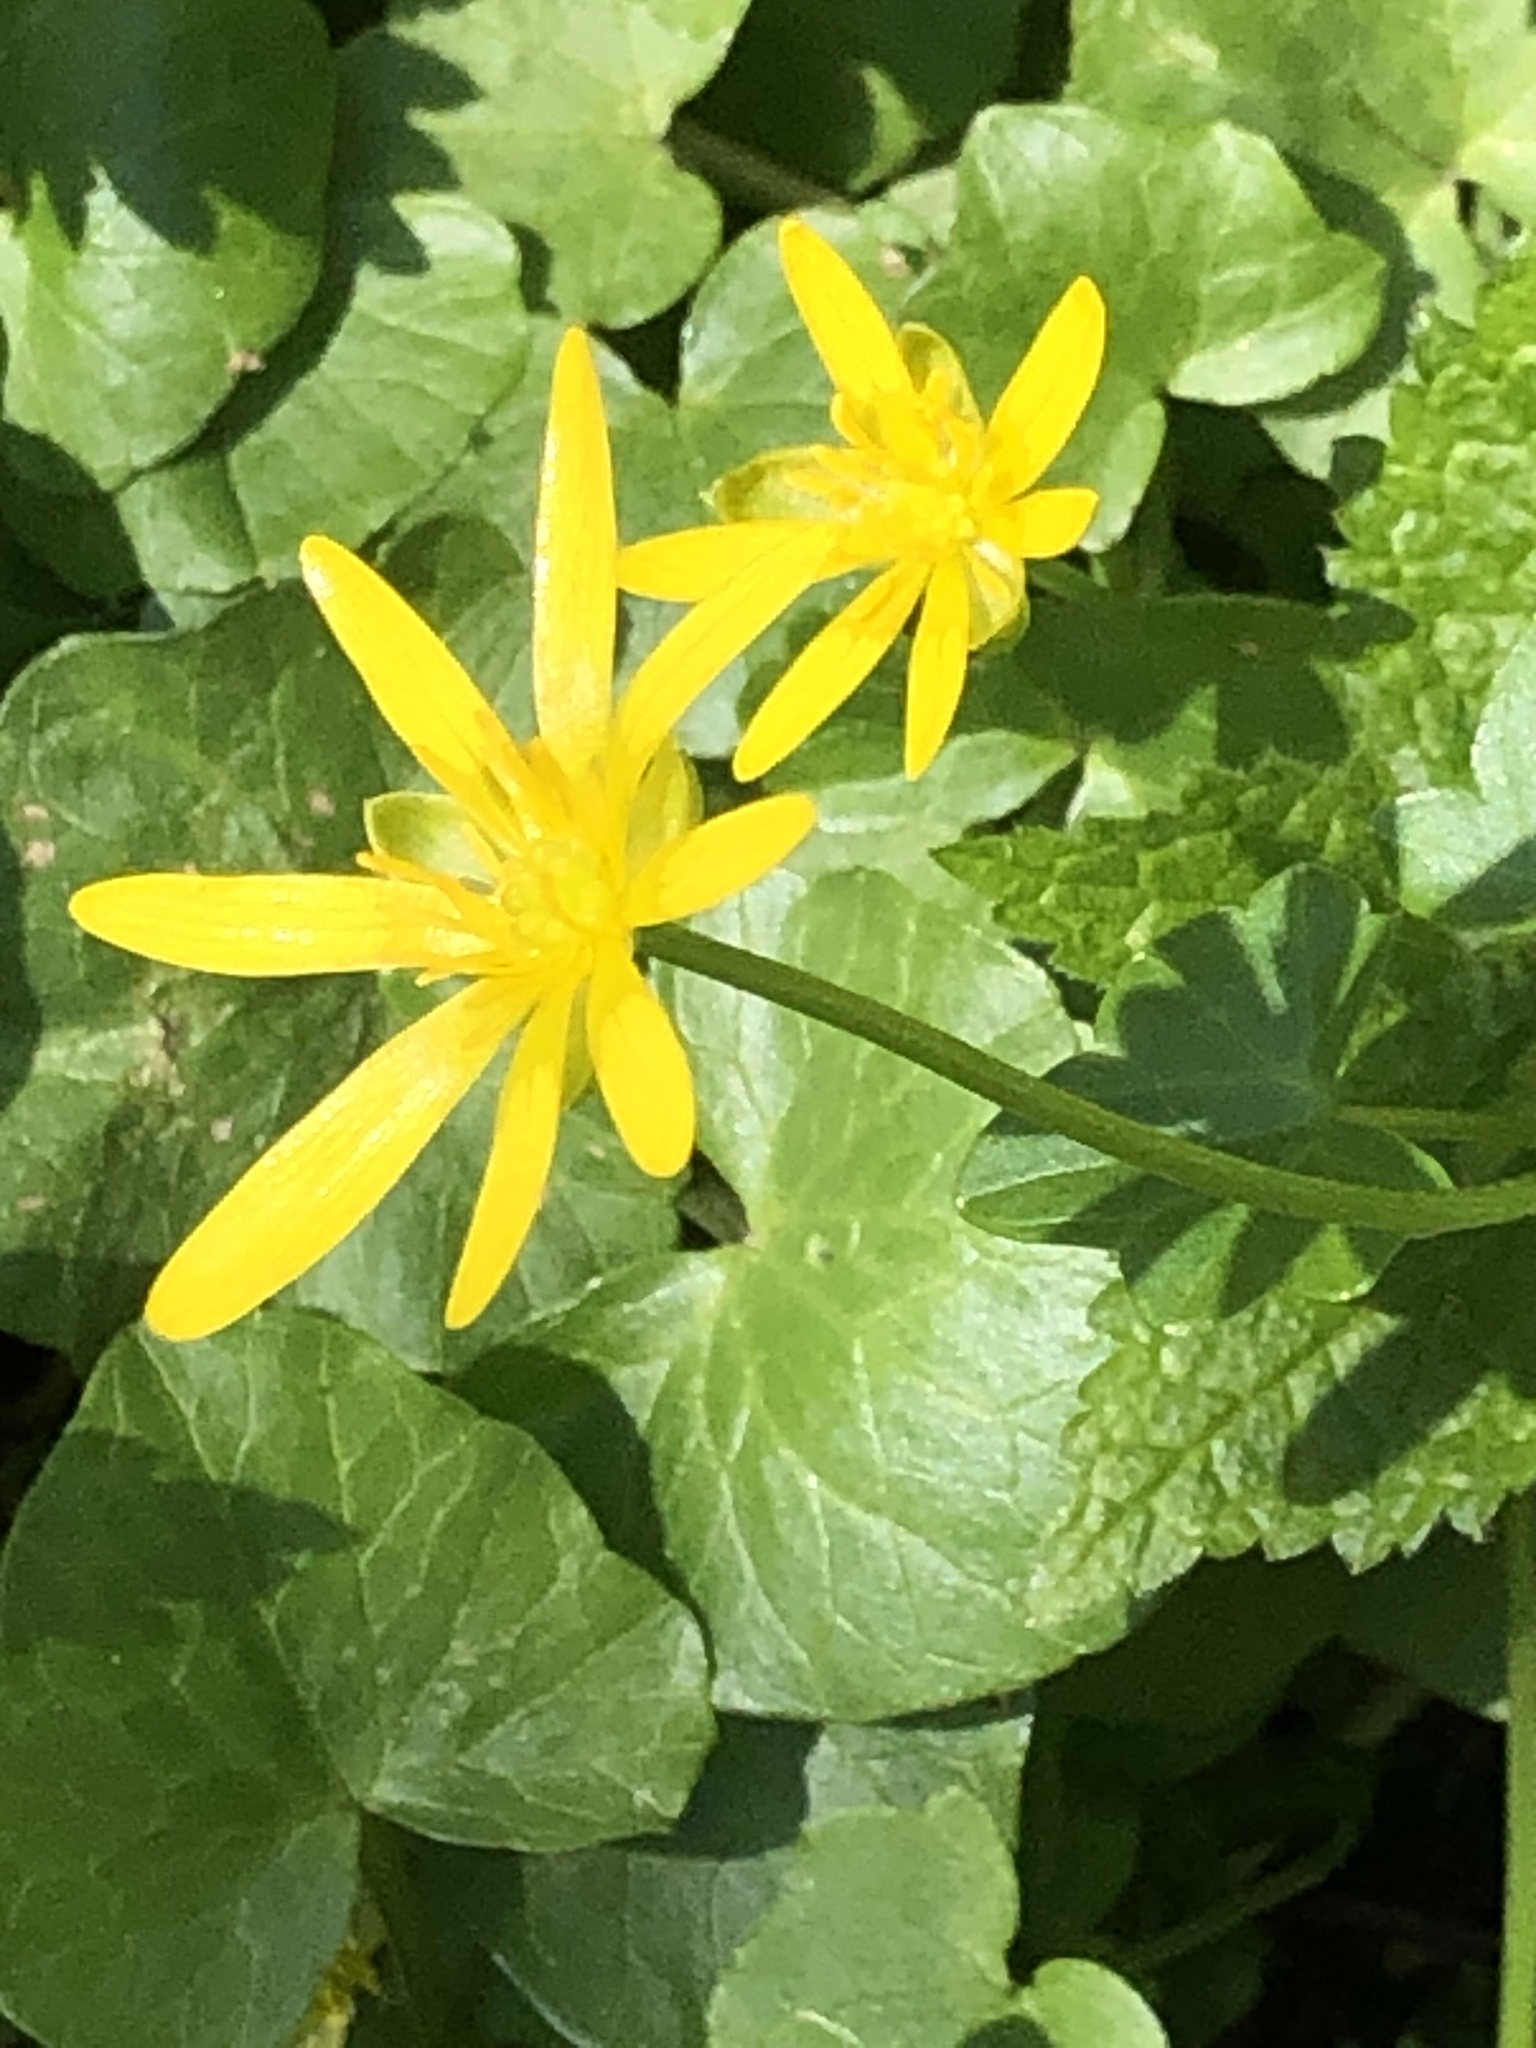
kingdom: Plantae
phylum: Tracheophyta
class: Magnoliopsida
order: Ranunculales
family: Ranunculaceae
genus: Ficaria
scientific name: Ficaria verna
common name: Lesser celandine
